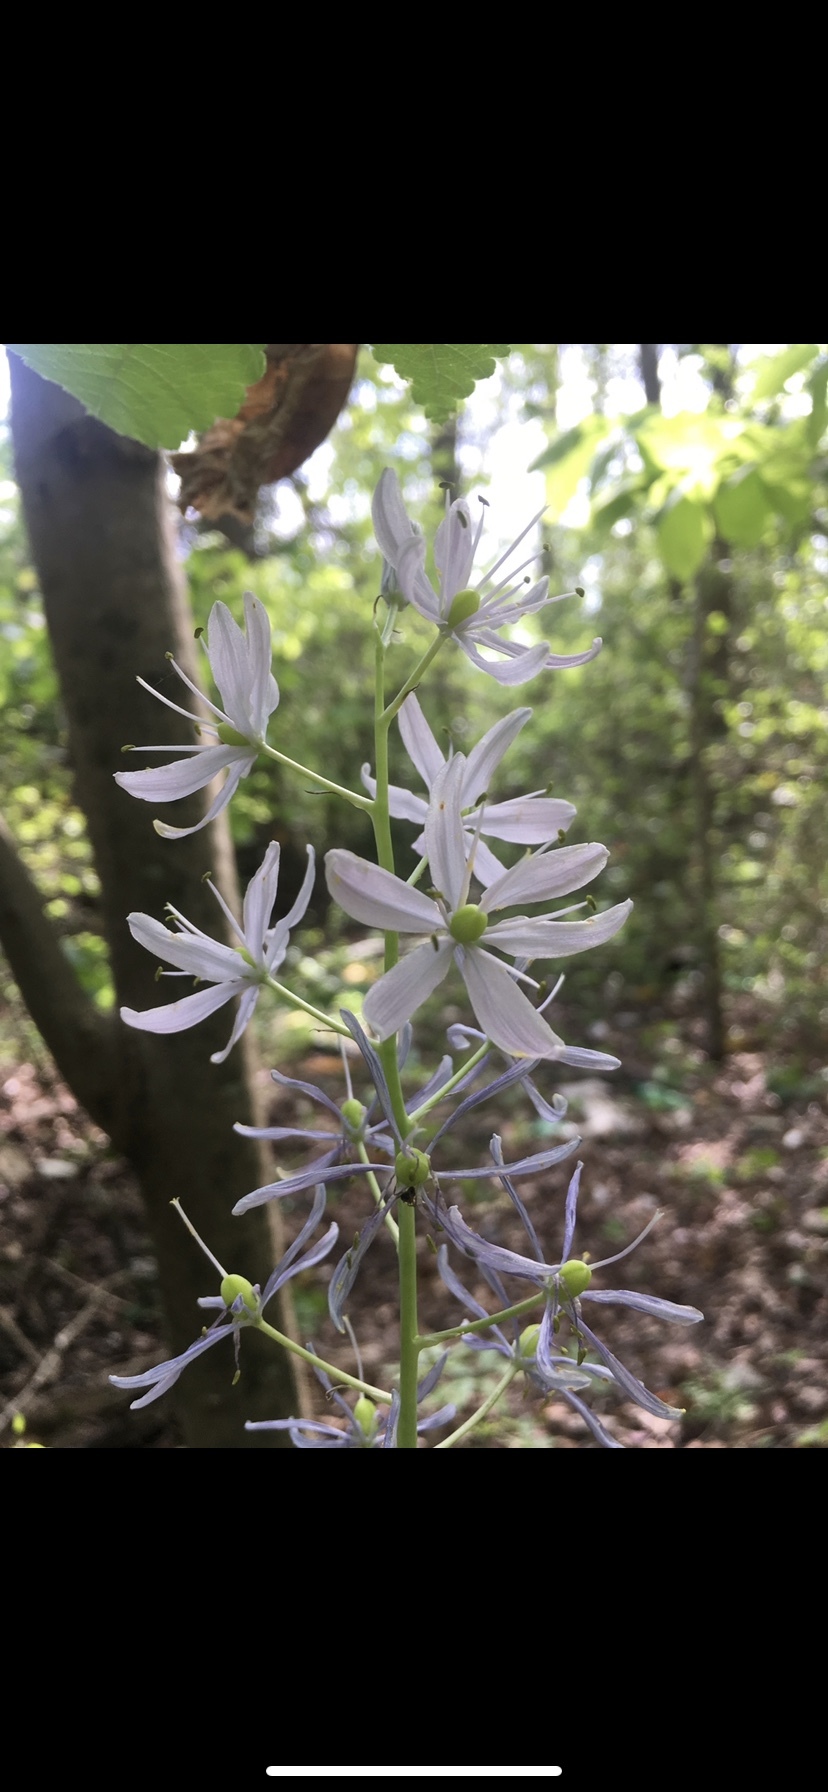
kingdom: Plantae
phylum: Tracheophyta
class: Liliopsida
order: Asparagales
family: Asparagaceae
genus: Camassia
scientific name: Camassia scilloides
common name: Wild hyacinth
